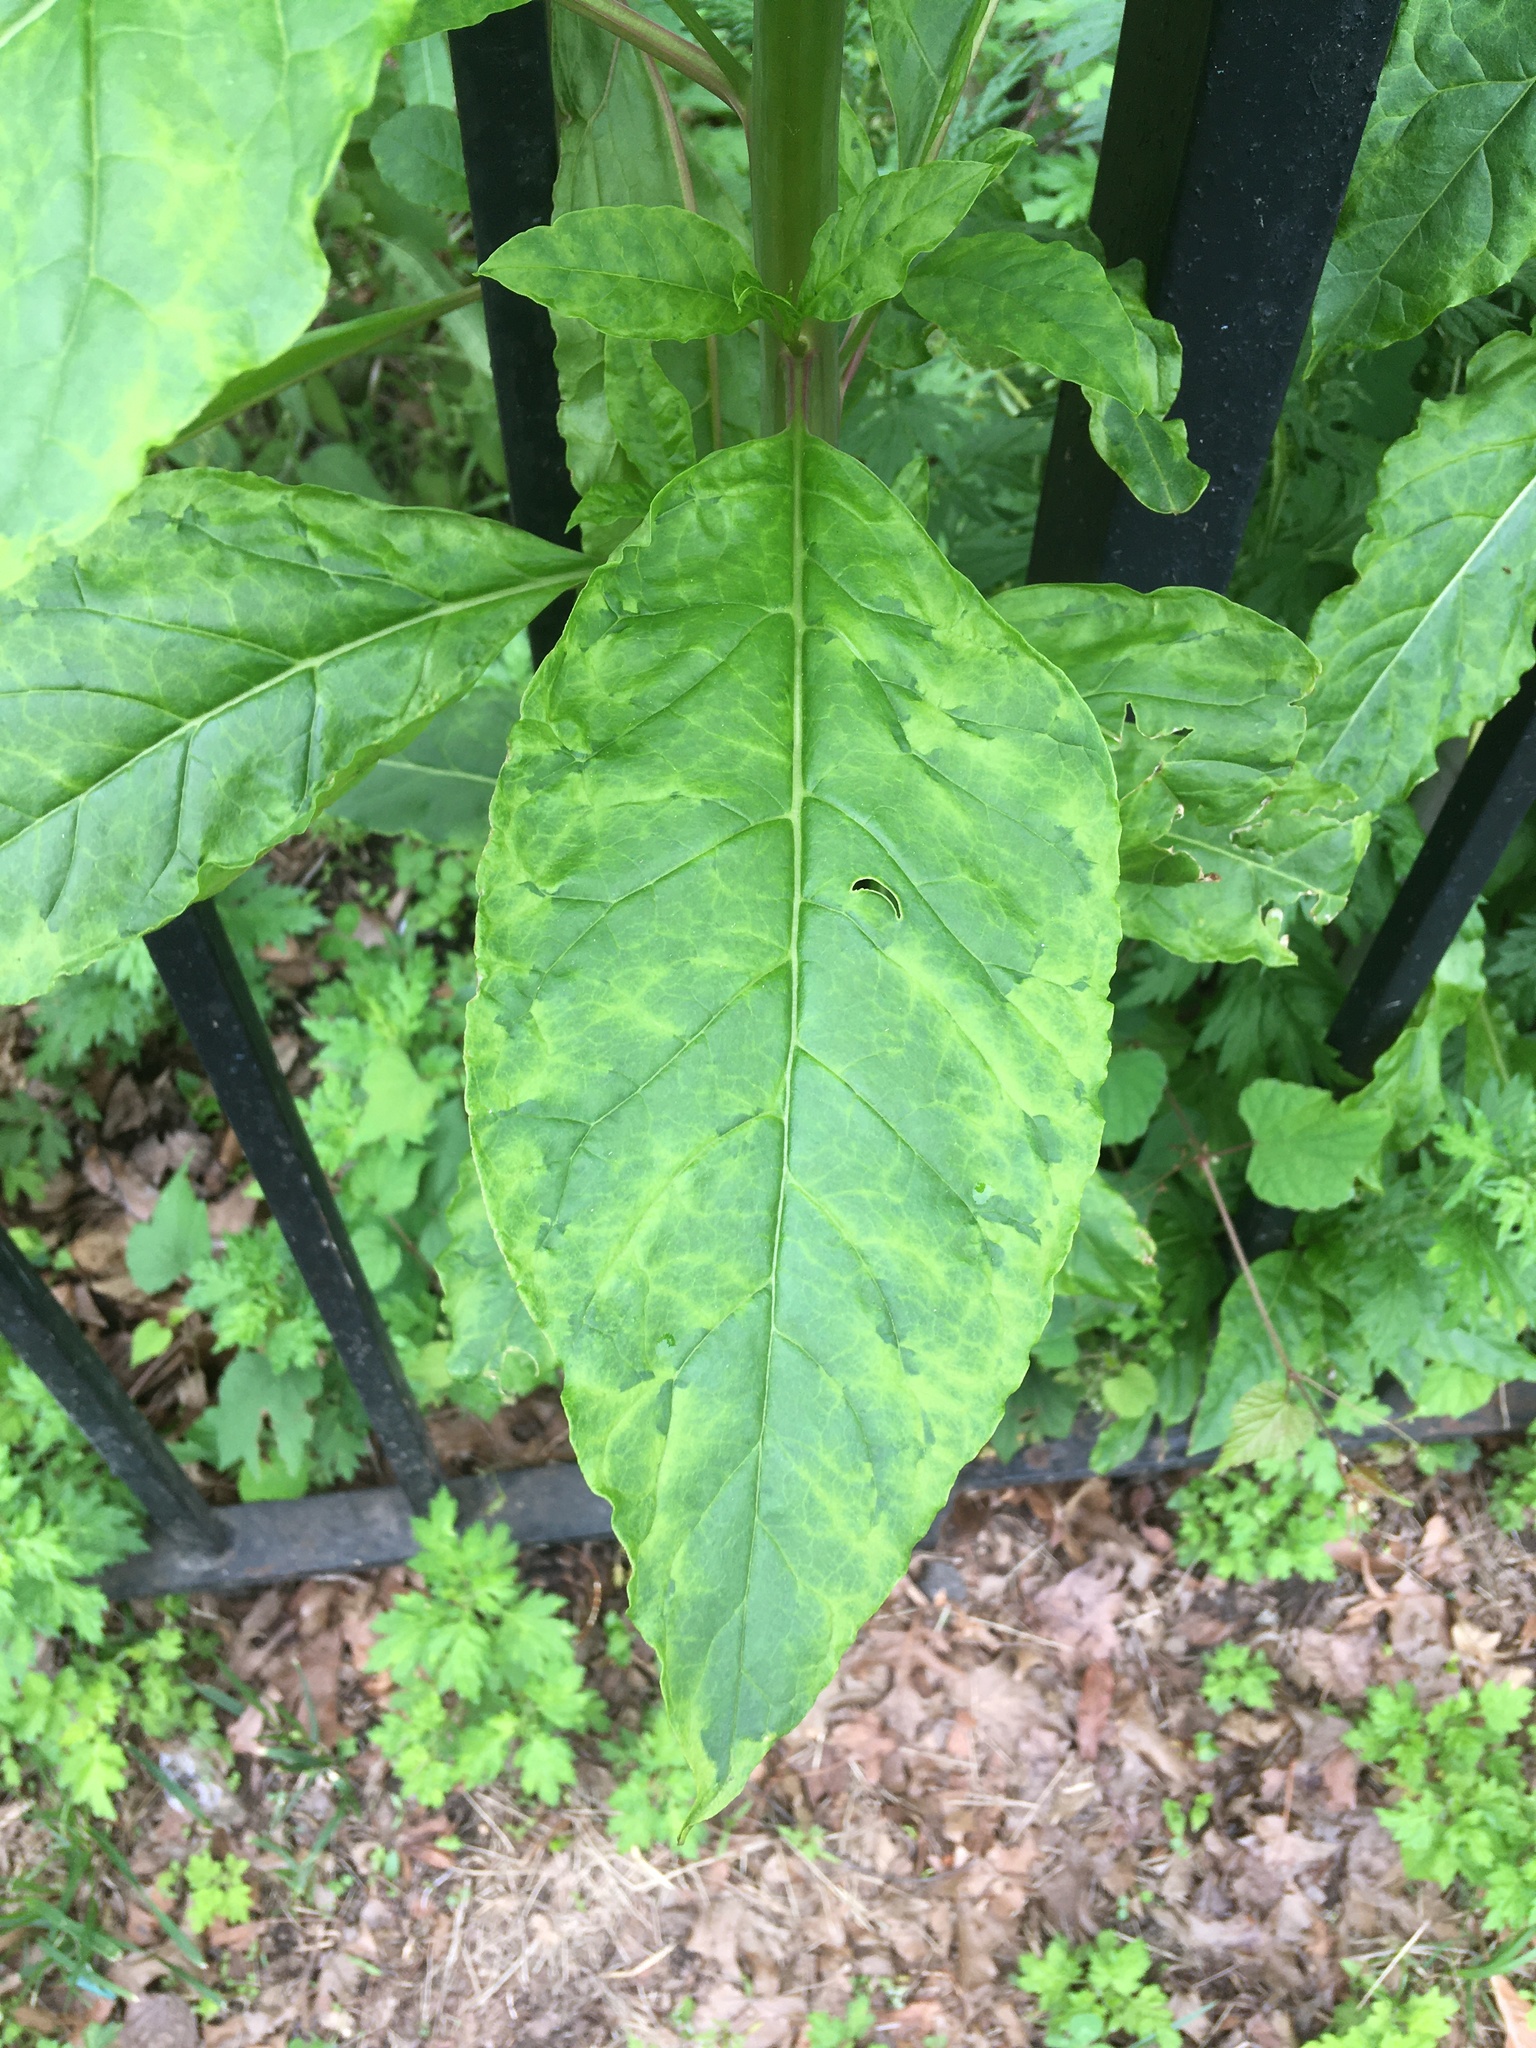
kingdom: Viruses
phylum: Pisuviricota
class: Stelpaviricetes
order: Patatavirales
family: Potyviridae
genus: Potyvirus
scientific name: Potyvirus Pokeweed mosaic virus
